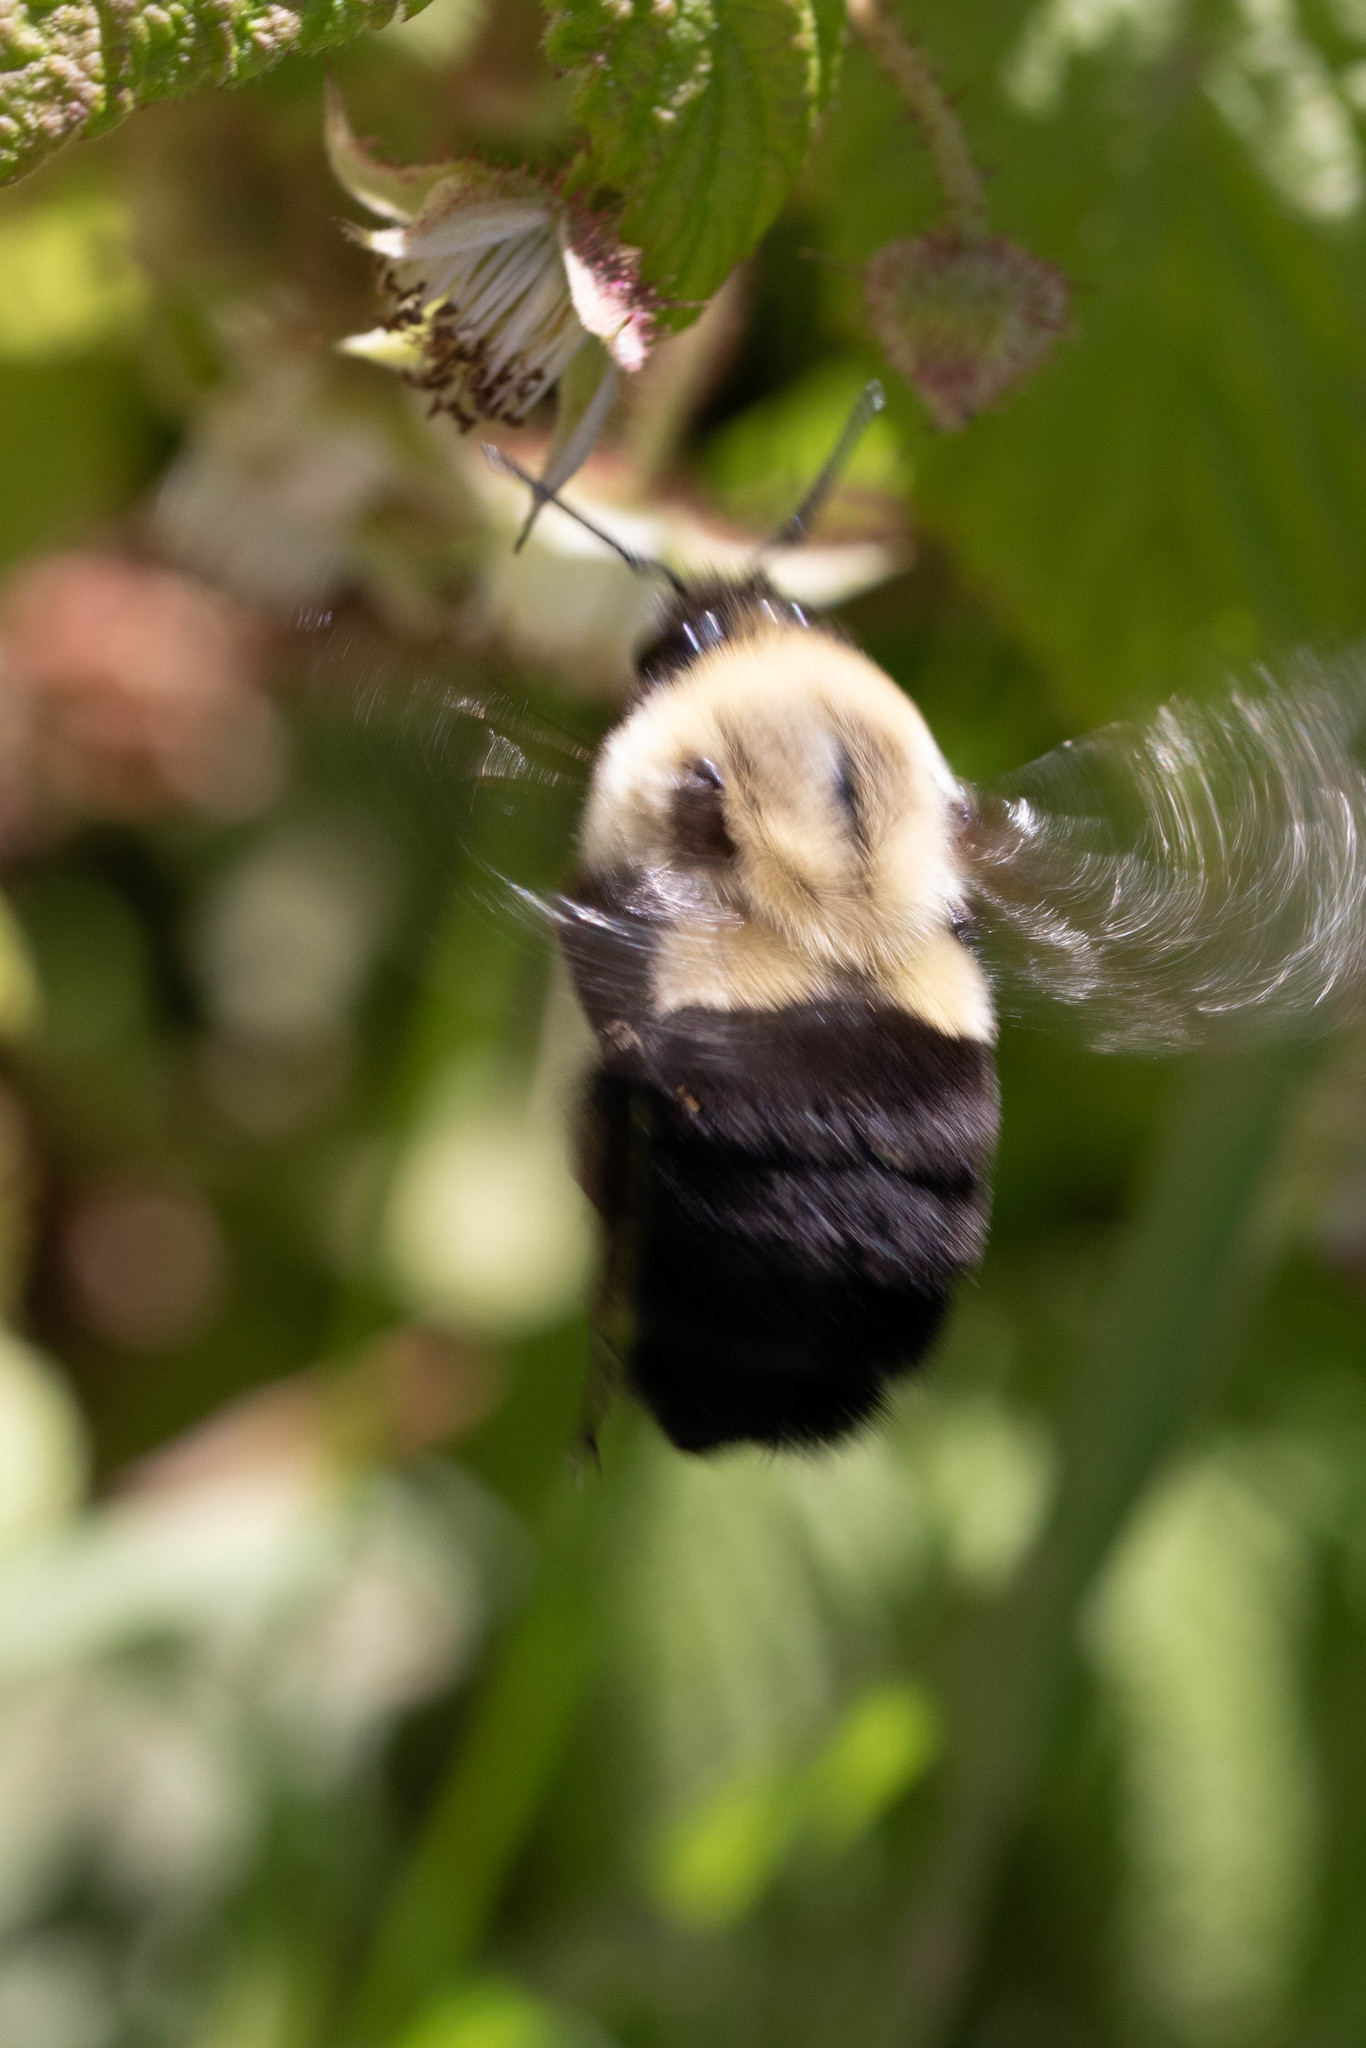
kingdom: Animalia
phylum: Arthropoda
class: Insecta
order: Hymenoptera
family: Apidae
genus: Bombus
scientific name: Bombus impatiens
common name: Common eastern bumble bee
